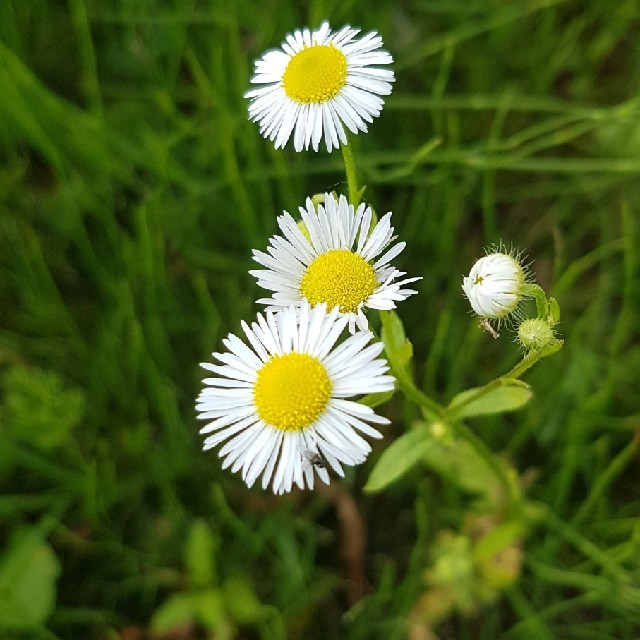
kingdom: Plantae
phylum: Tracheophyta
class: Magnoliopsida
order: Asterales
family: Asteraceae
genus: Erigeron
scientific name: Erigeron annuus
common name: Tall fleabane
